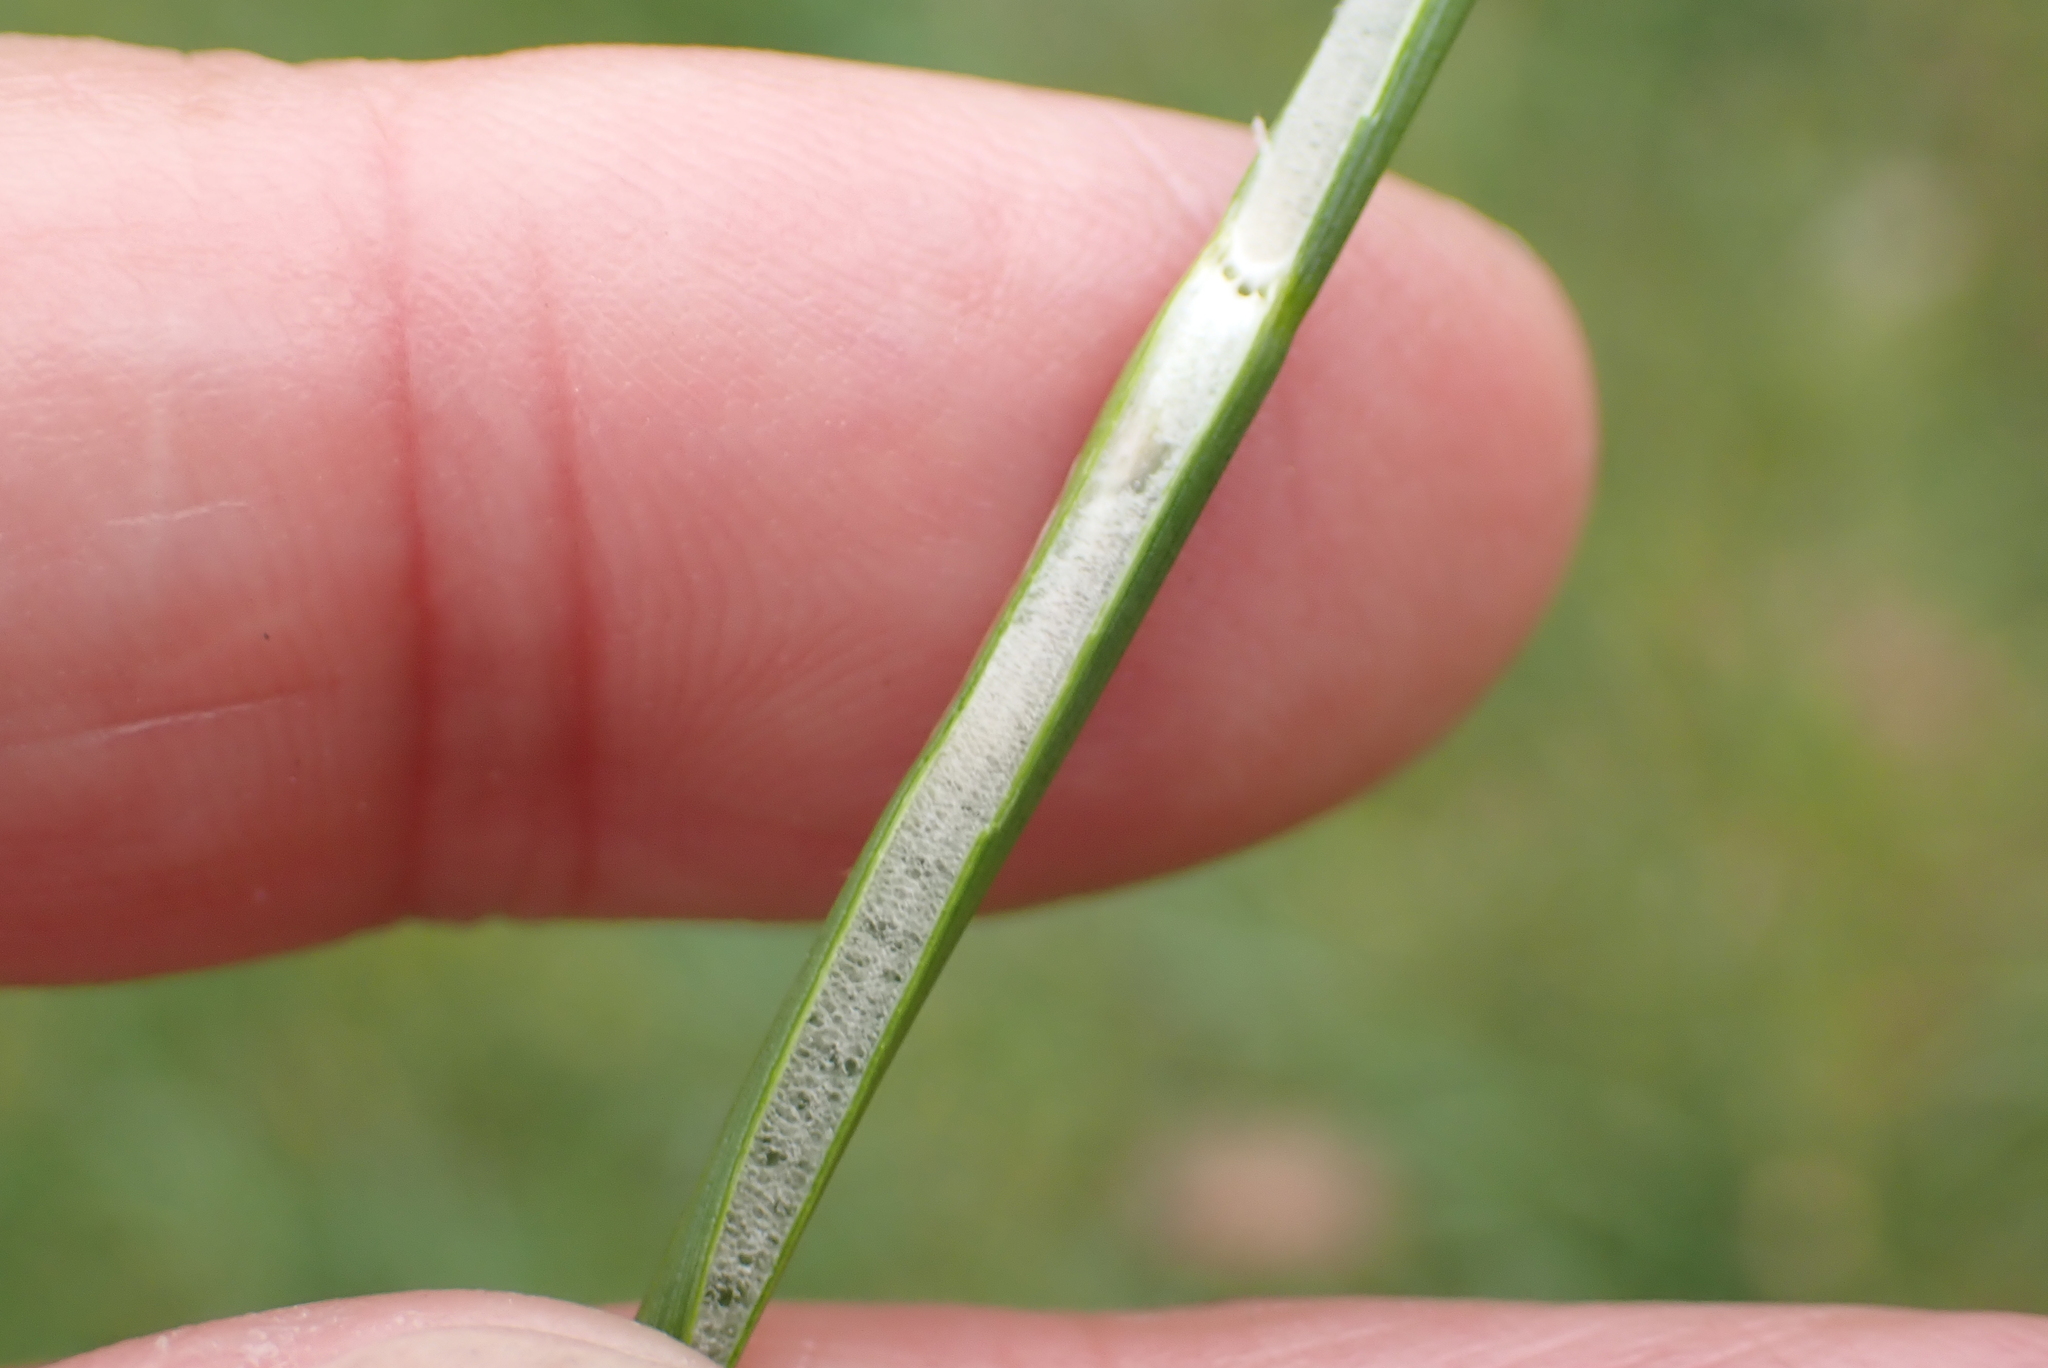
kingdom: Plantae
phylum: Tracheophyta
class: Liliopsida
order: Poales
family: Juncaceae
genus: Juncus
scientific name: Juncus effusus
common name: Soft rush
